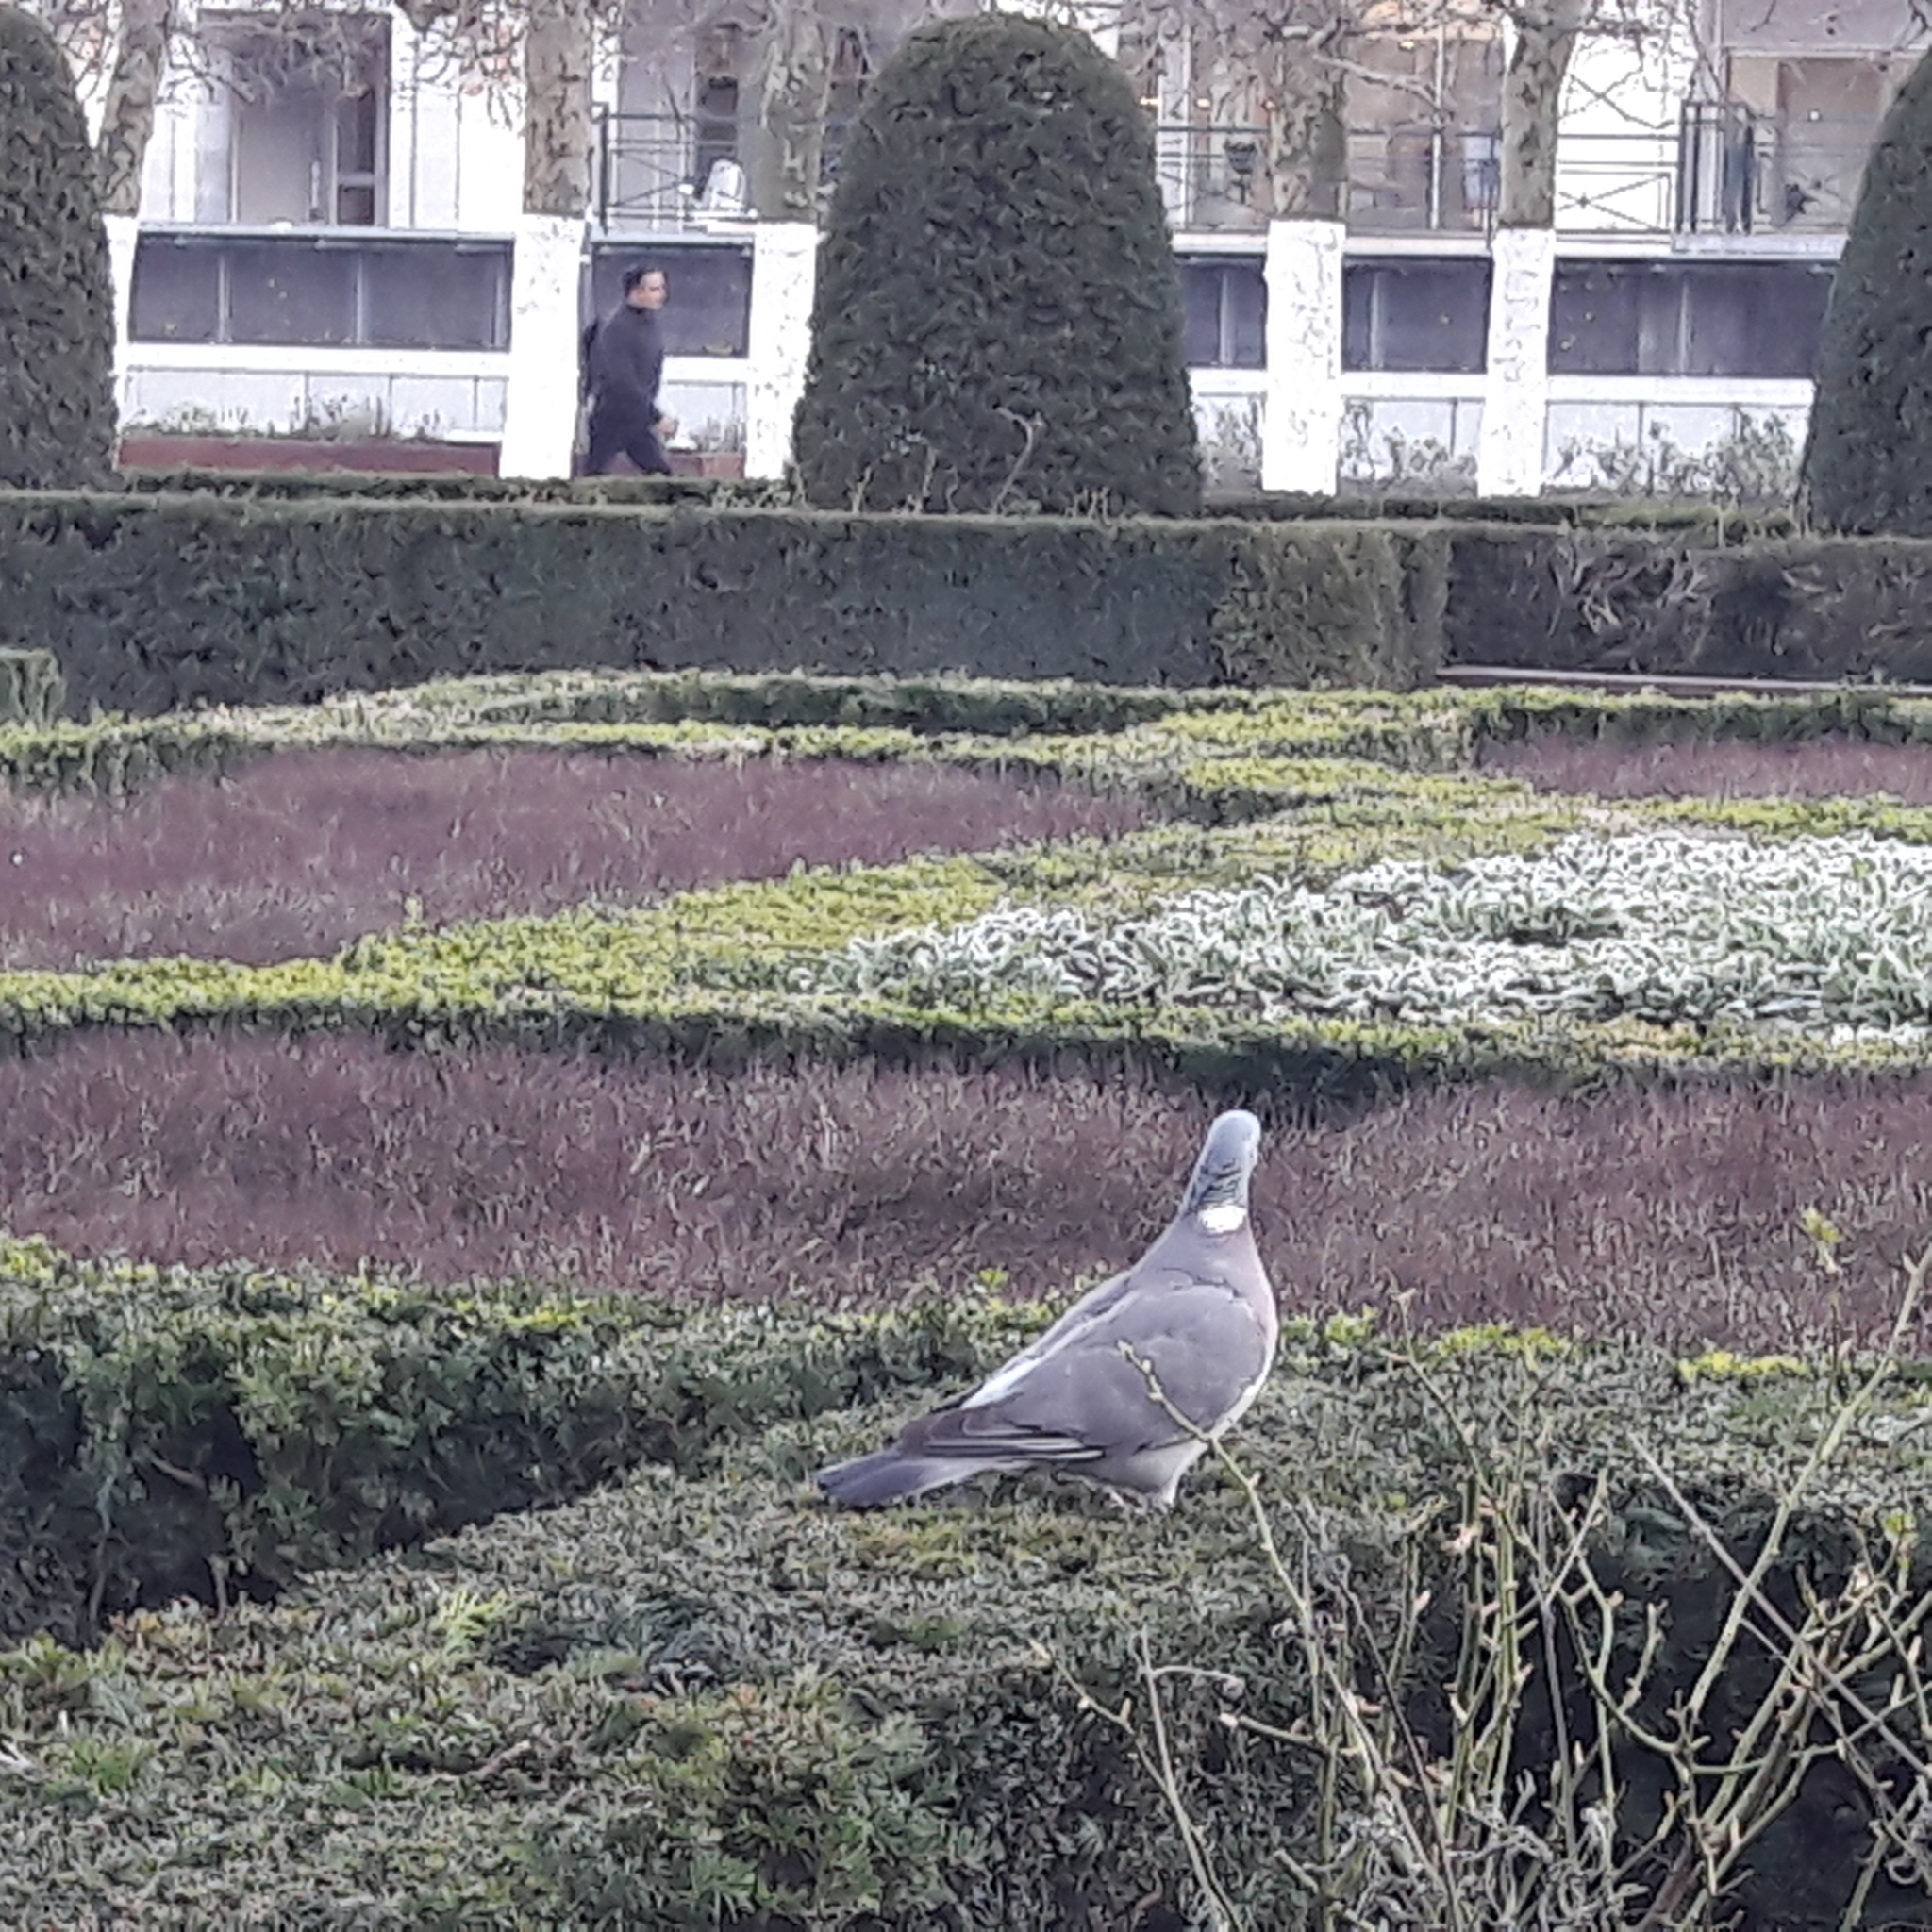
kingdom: Animalia
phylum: Chordata
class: Aves
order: Columbiformes
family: Columbidae
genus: Columba
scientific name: Columba palumbus
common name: Common wood pigeon
